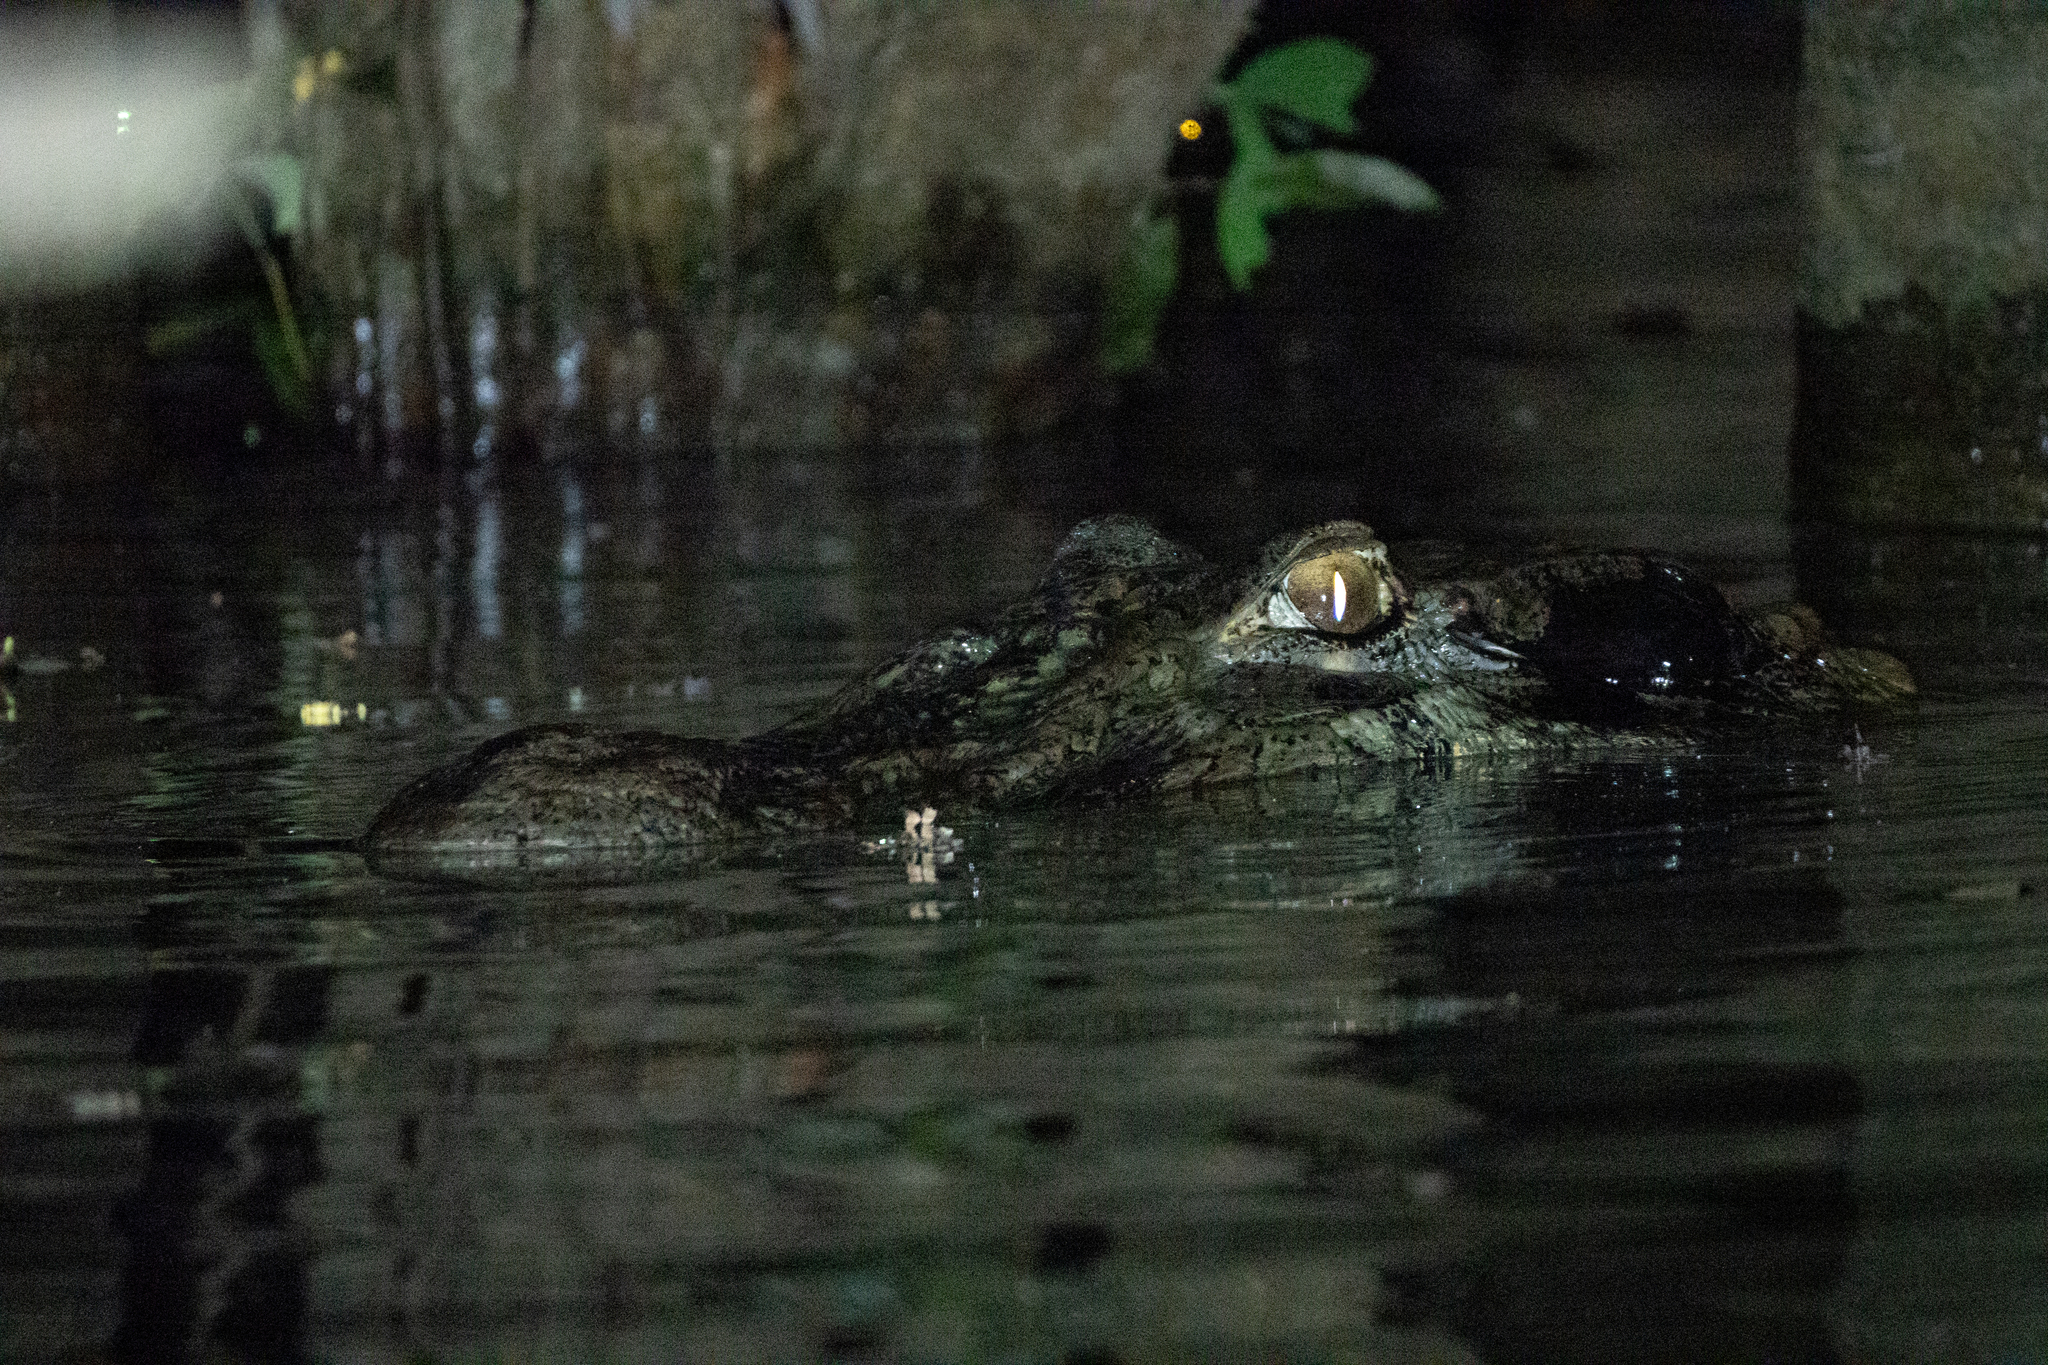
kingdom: Animalia
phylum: Chordata
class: Crocodylia
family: Alligatoridae
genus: Melanosuchus
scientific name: Melanosuchus niger
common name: Black caiman
